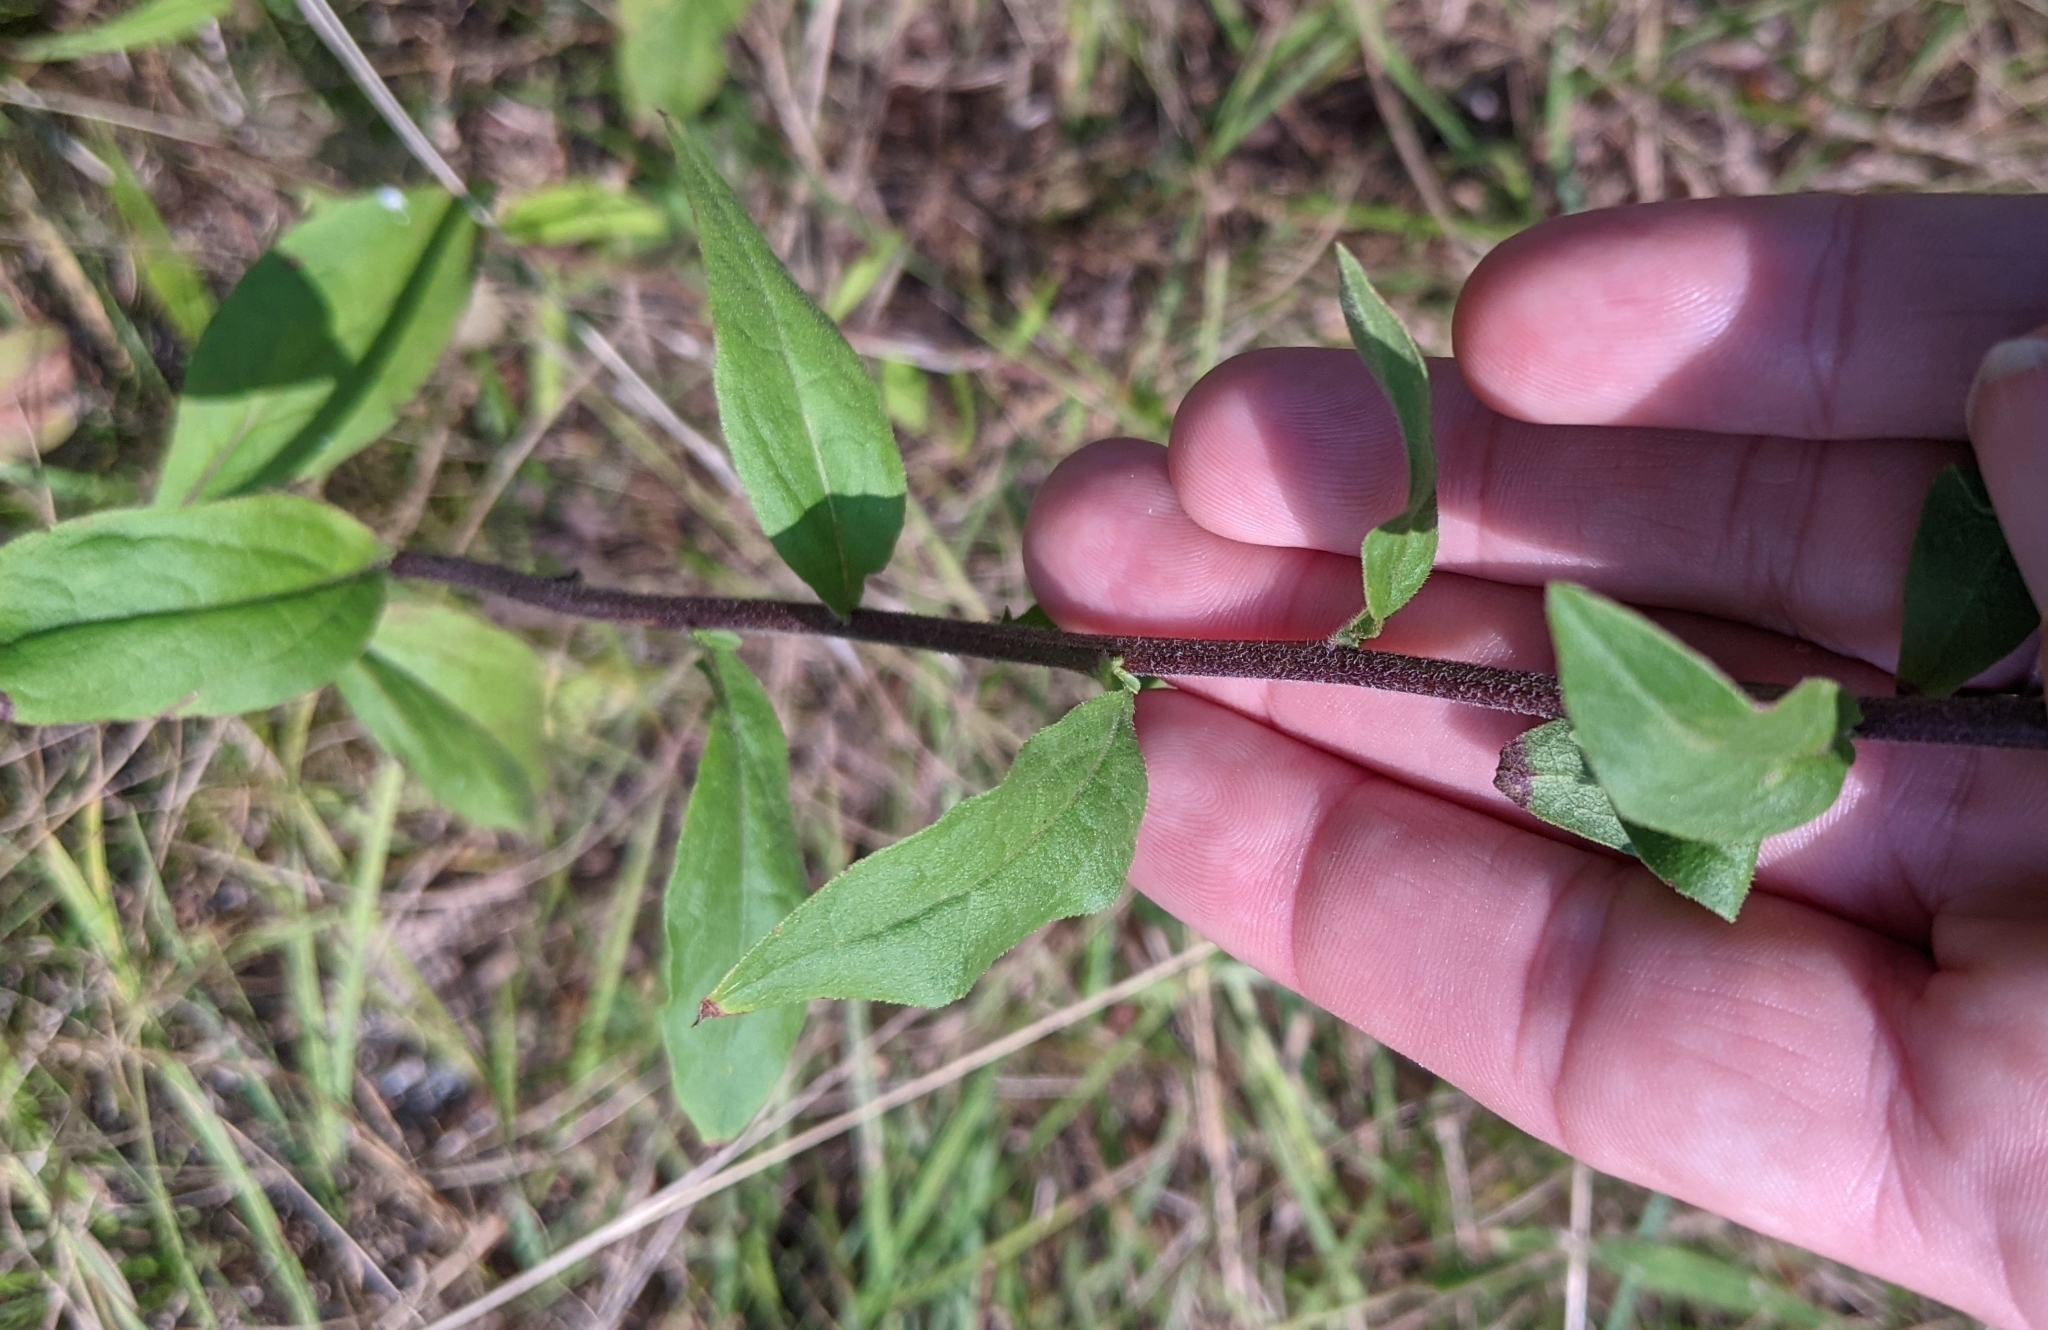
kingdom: Plantae
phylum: Tracheophyta
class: Magnoliopsida
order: Asterales
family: Asteraceae
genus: Solidago
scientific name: Solidago bicolor
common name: Silverrod
